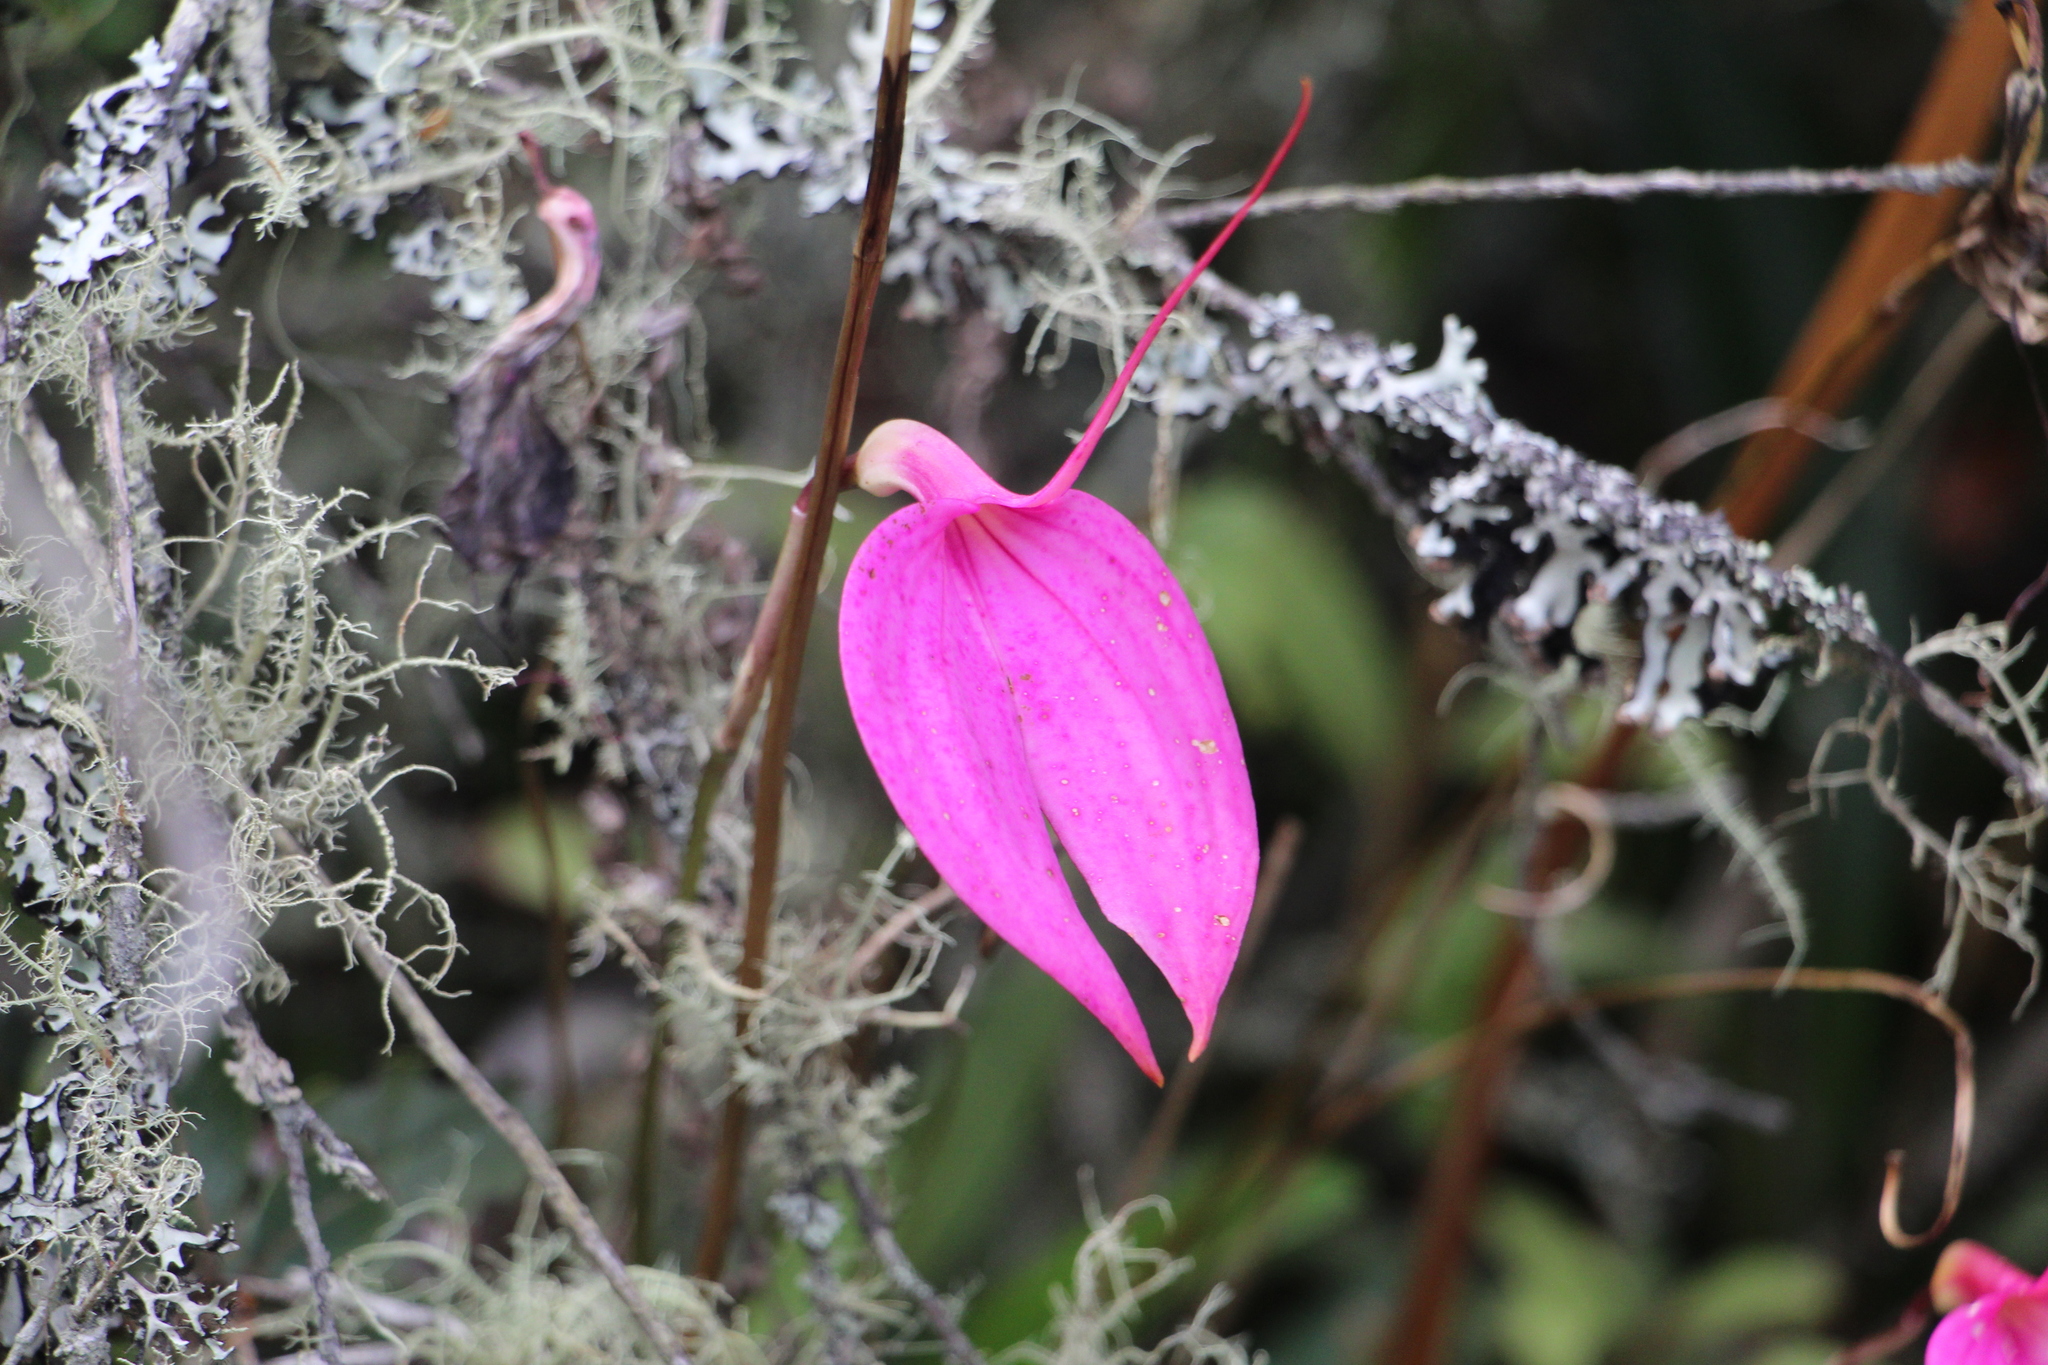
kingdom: Plantae
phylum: Tracheophyta
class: Liliopsida
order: Asparagales
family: Orchidaceae
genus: Masdevallia
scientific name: Masdevallia coccinea
